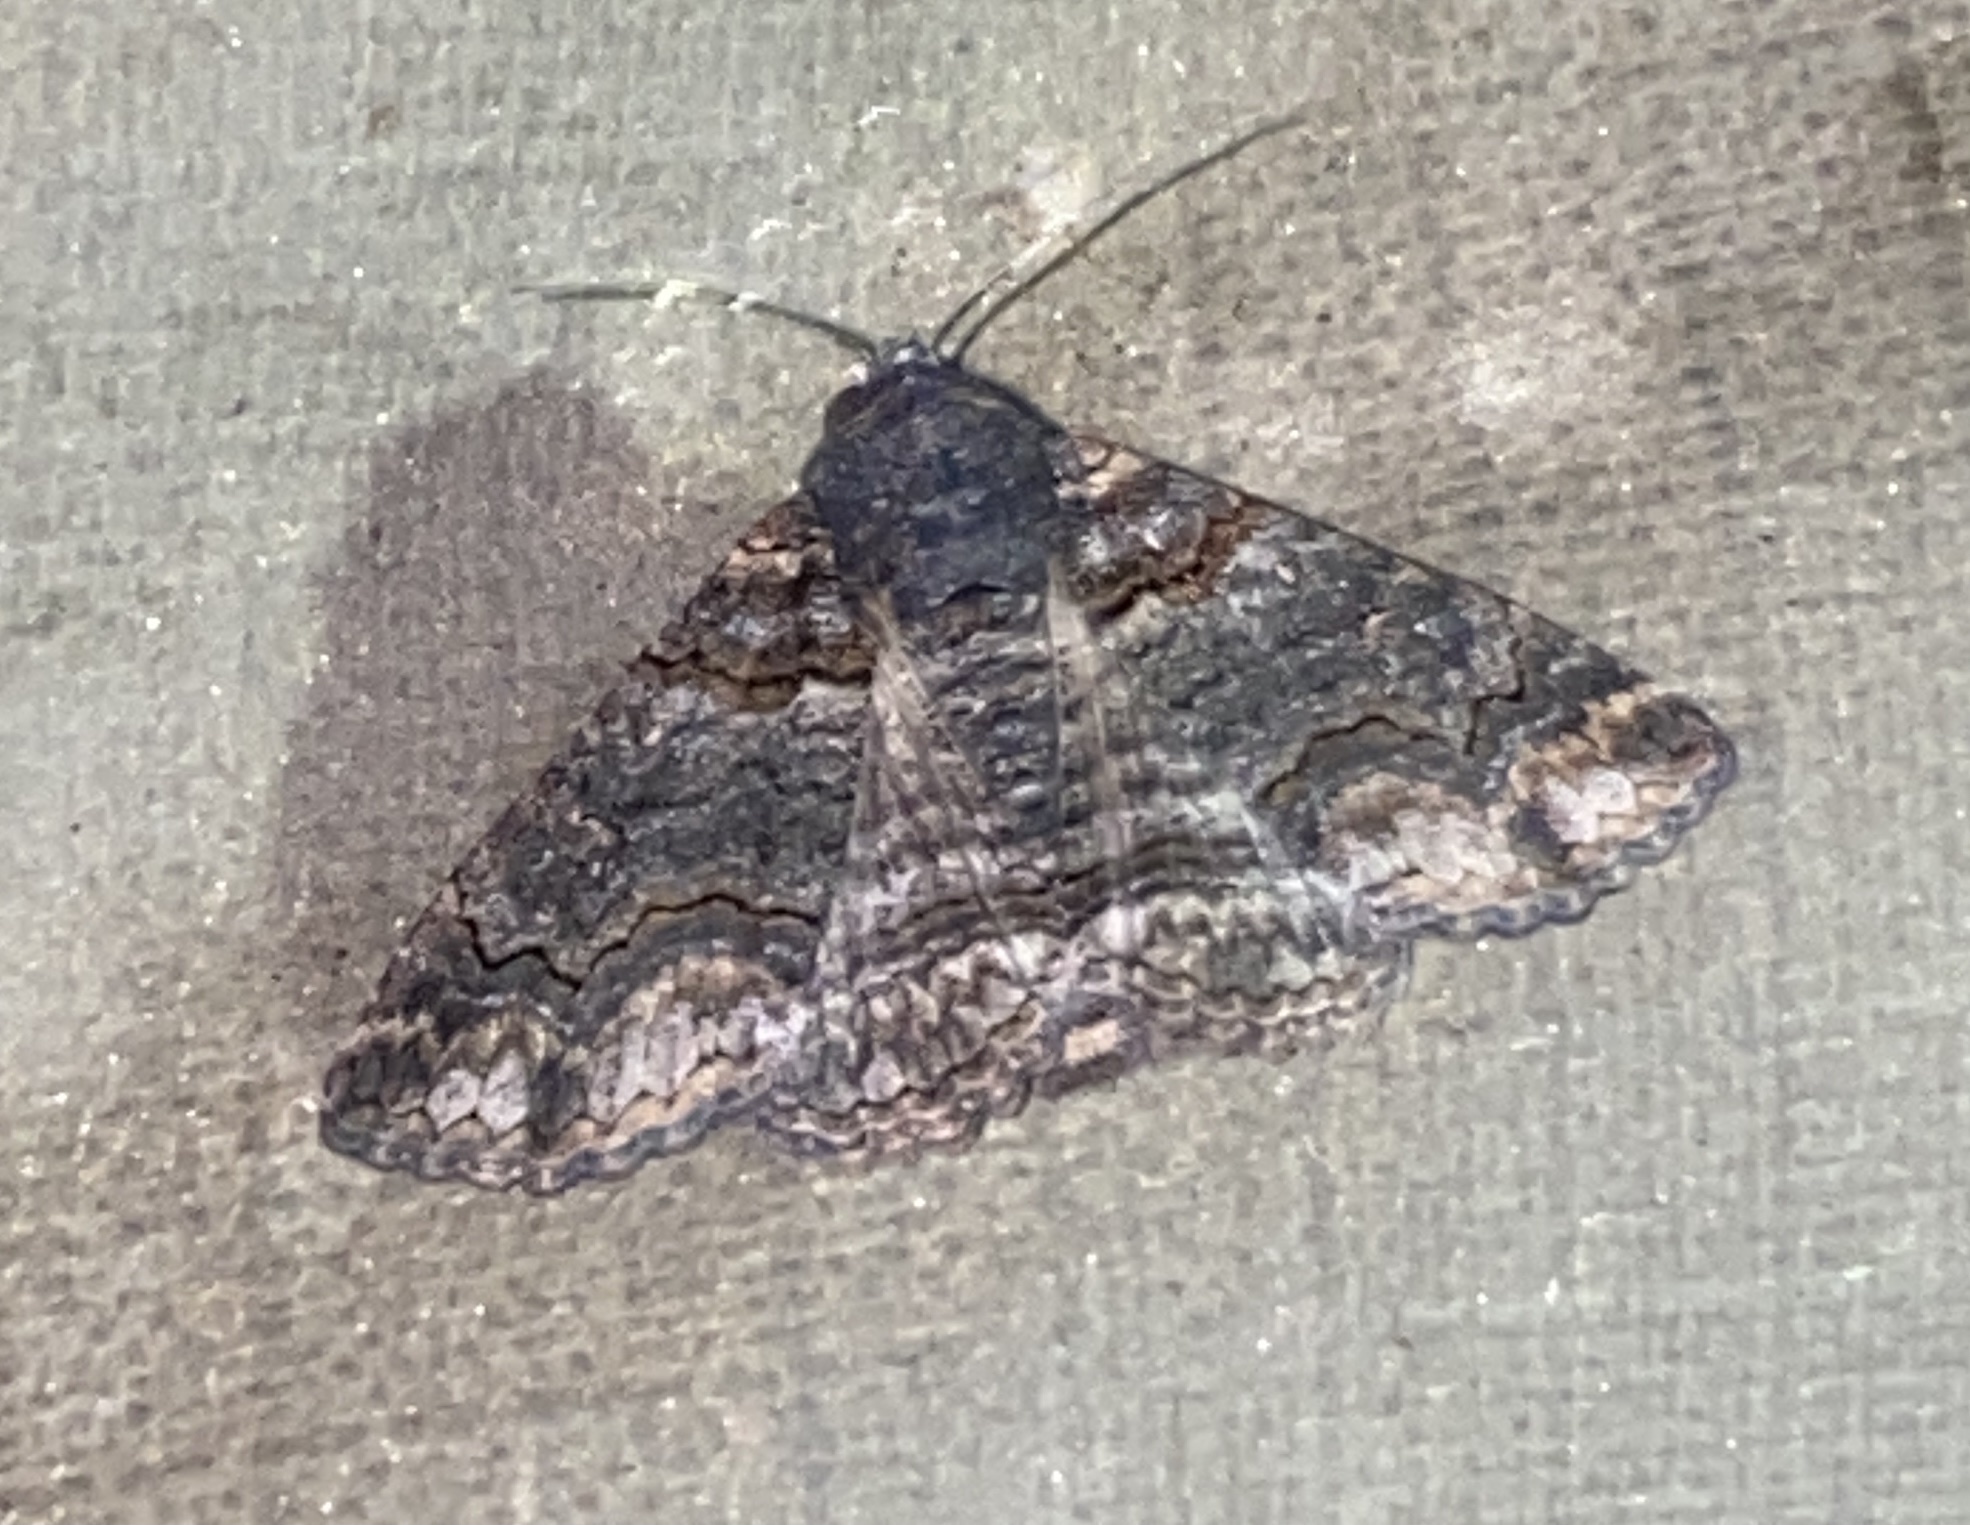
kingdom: Animalia
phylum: Arthropoda
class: Insecta
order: Lepidoptera
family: Erebidae
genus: Pericyma
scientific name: Pericyma atrifusa
